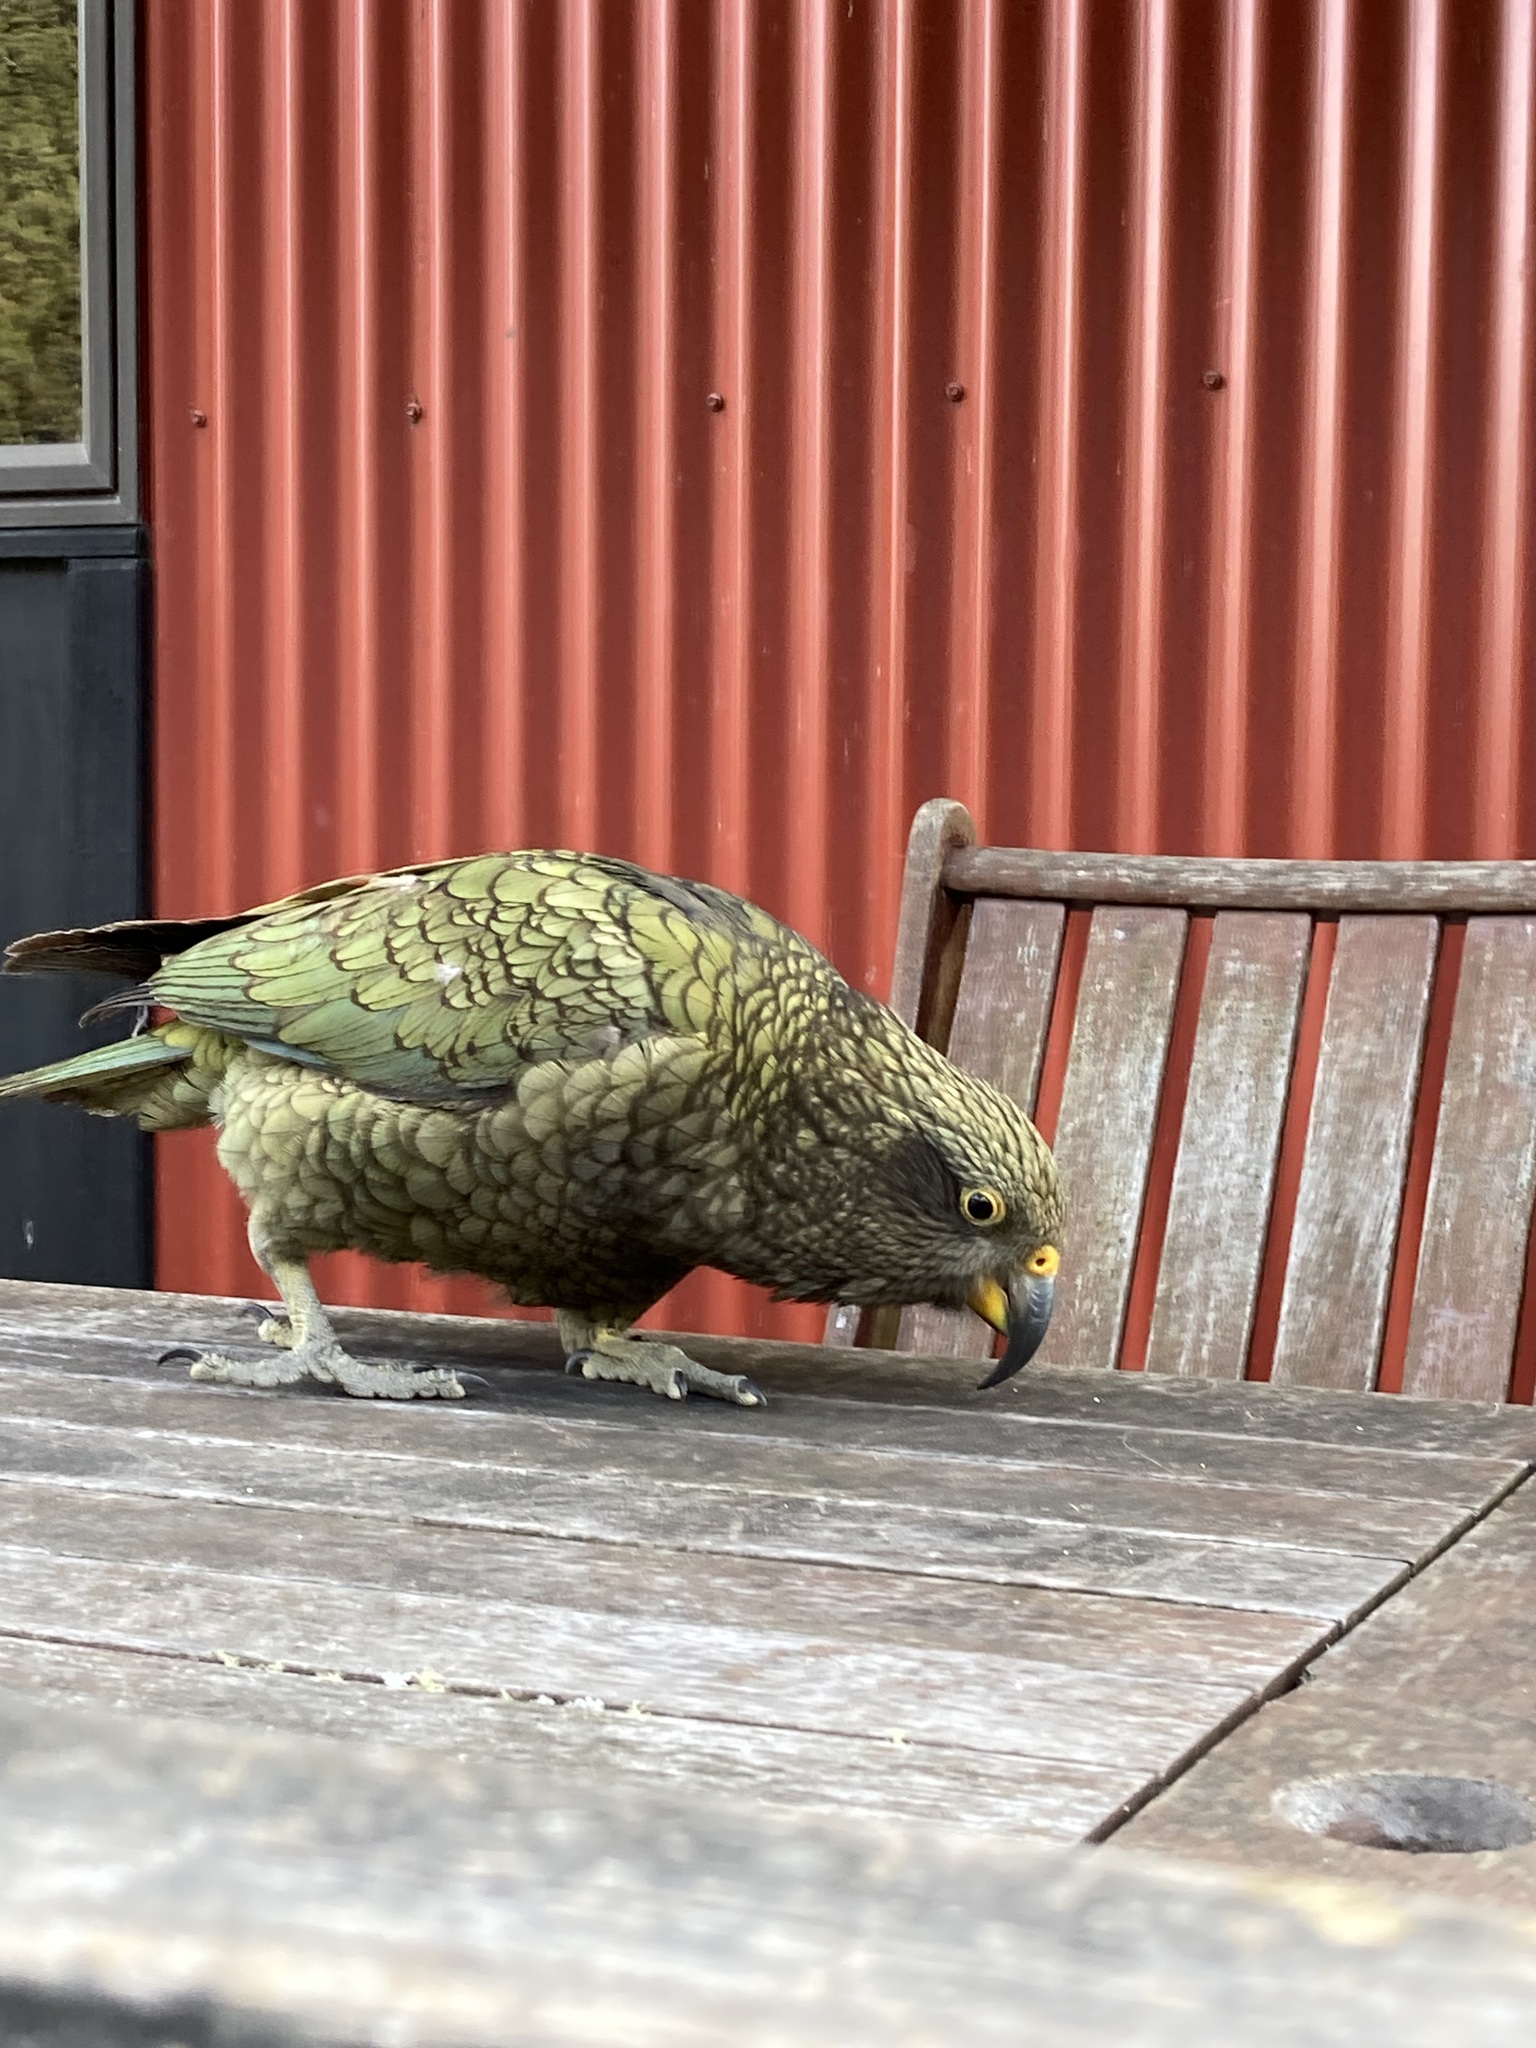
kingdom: Animalia
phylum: Chordata
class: Aves
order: Psittaciformes
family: Psittacidae
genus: Nestor
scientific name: Nestor notabilis
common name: Kea
